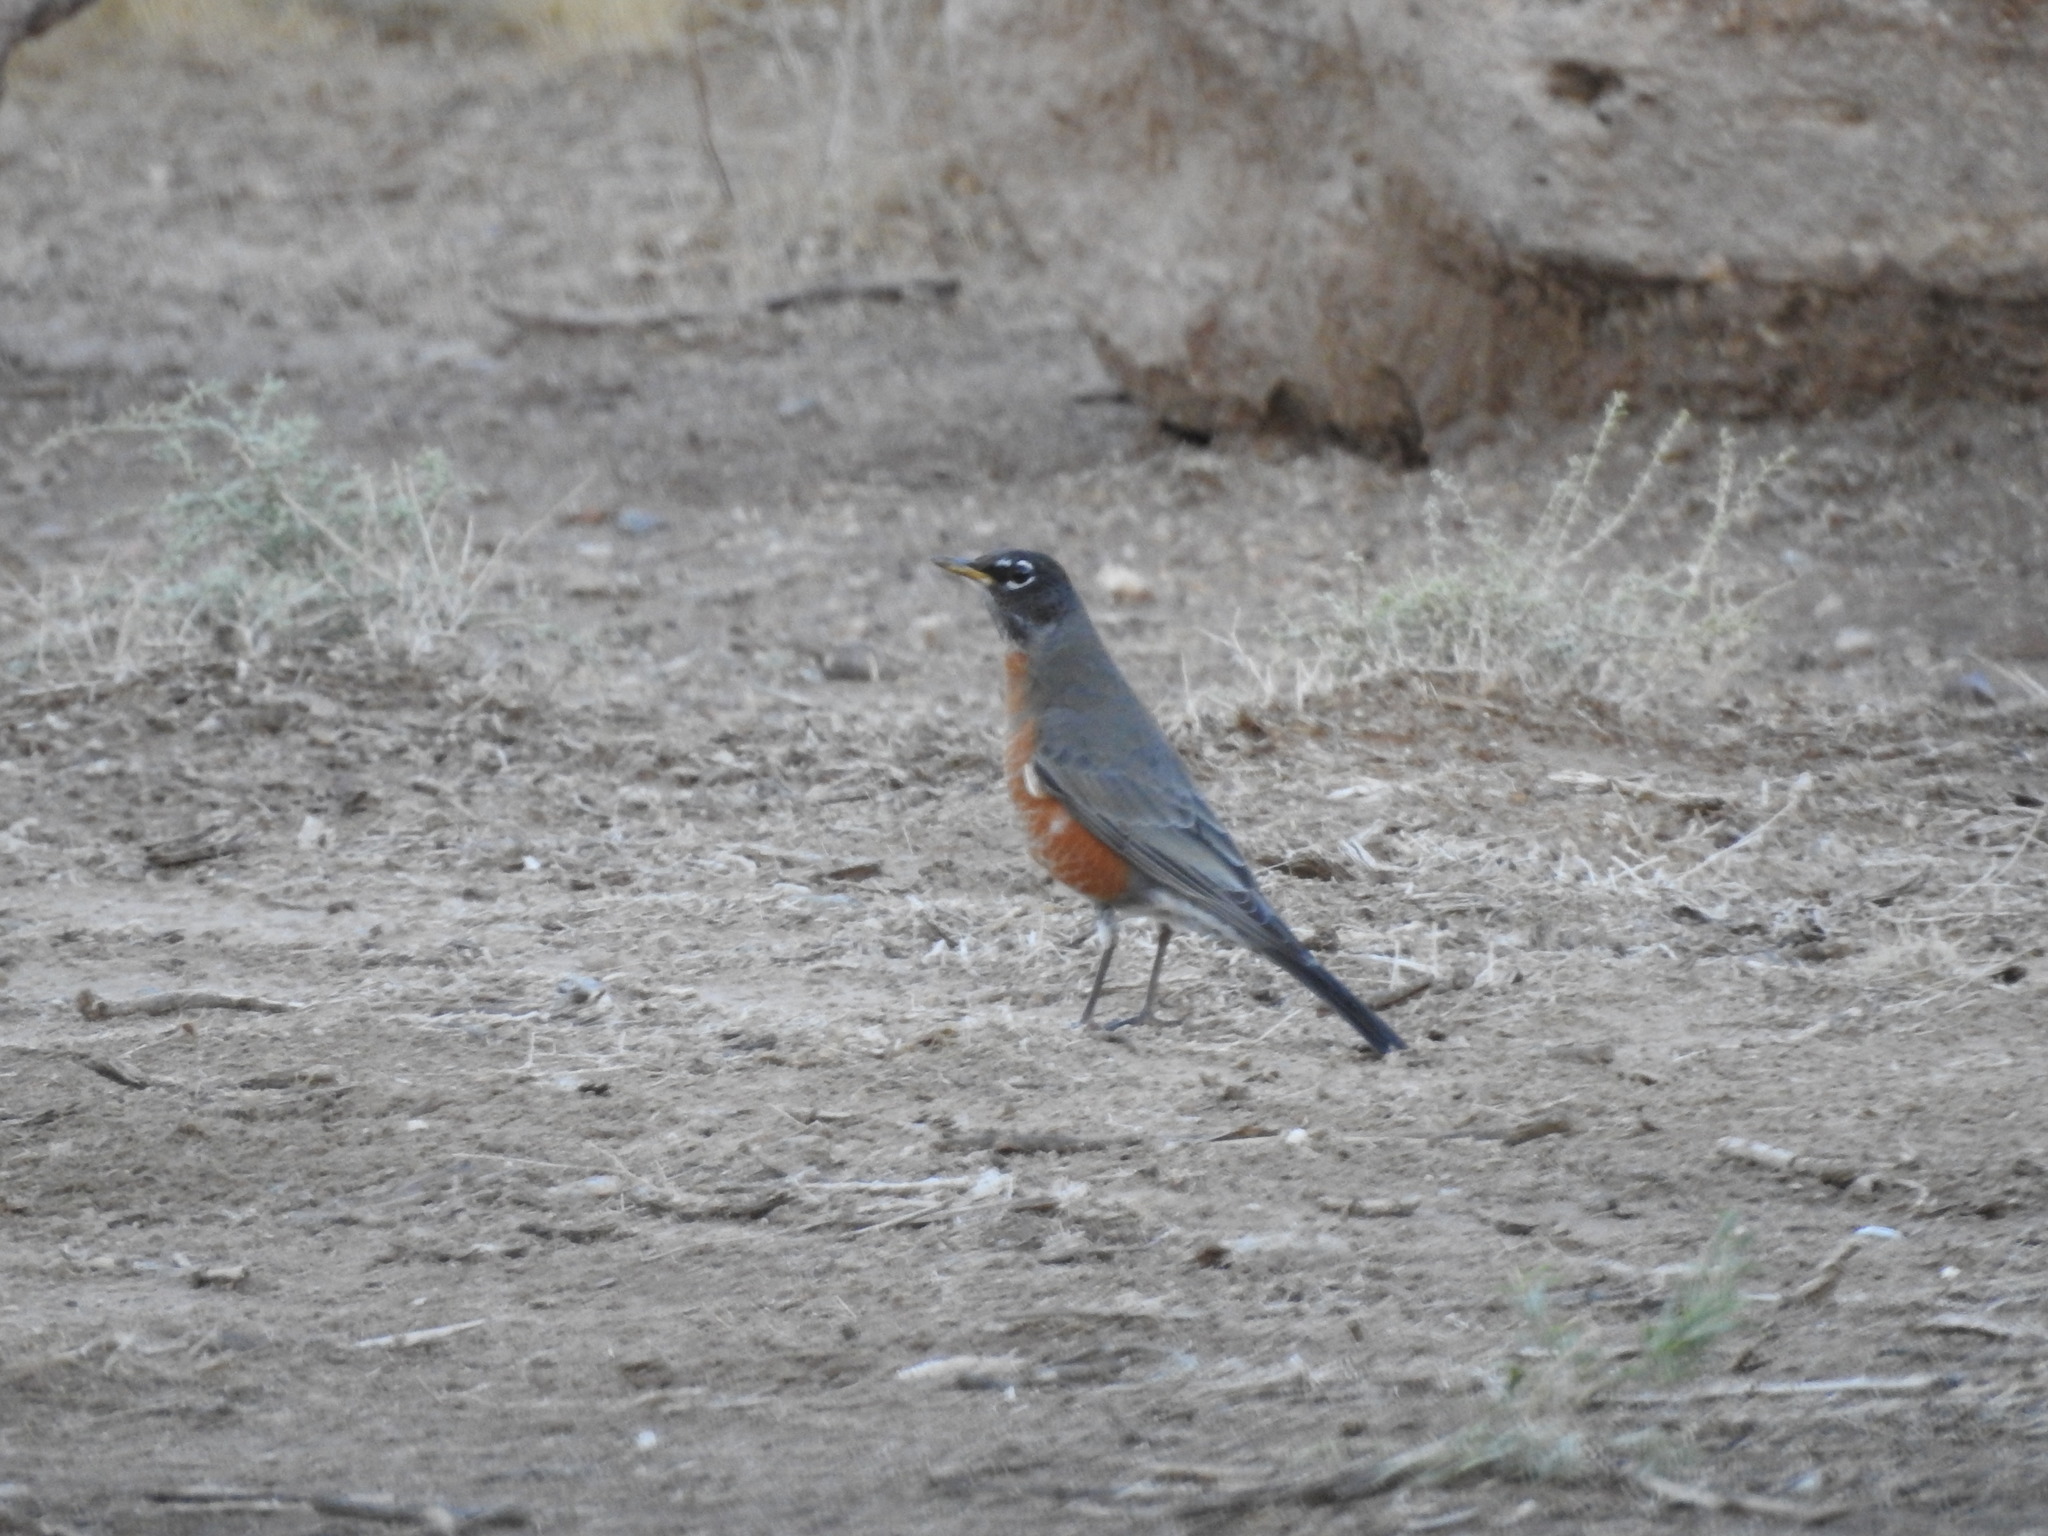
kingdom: Animalia
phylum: Chordata
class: Aves
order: Passeriformes
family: Turdidae
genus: Turdus
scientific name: Turdus migratorius
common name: American robin
